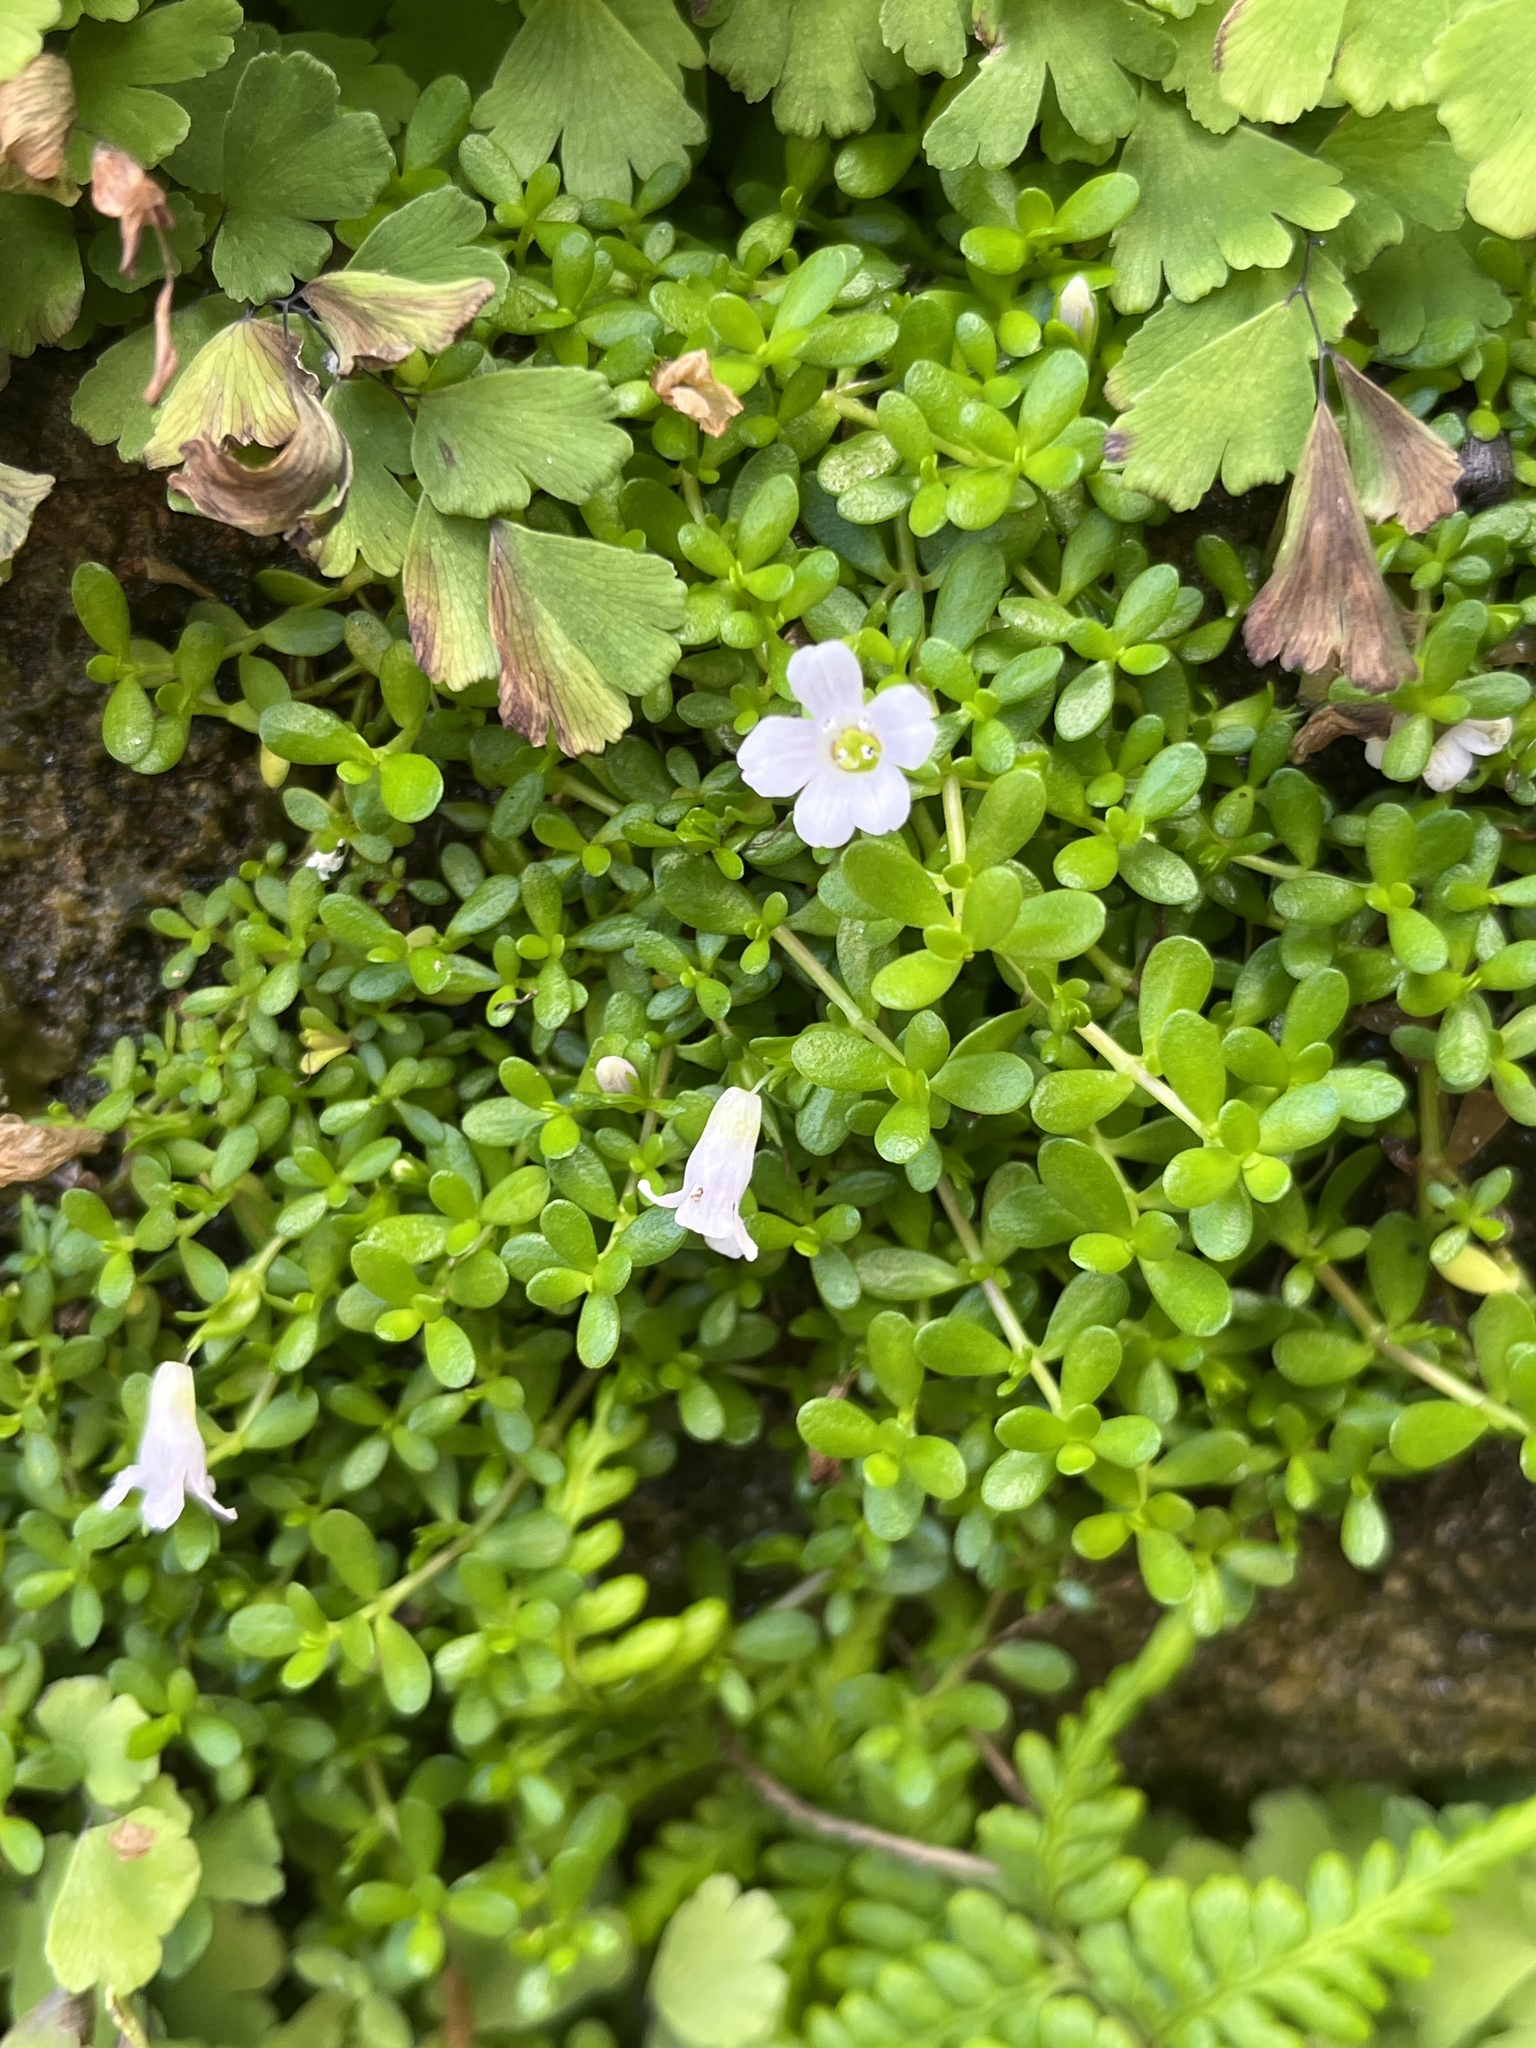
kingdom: Plantae
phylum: Tracheophyta
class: Magnoliopsida
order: Lamiales
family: Plantaginaceae
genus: Bacopa
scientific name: Bacopa monnieri
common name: Indian-pennywort
